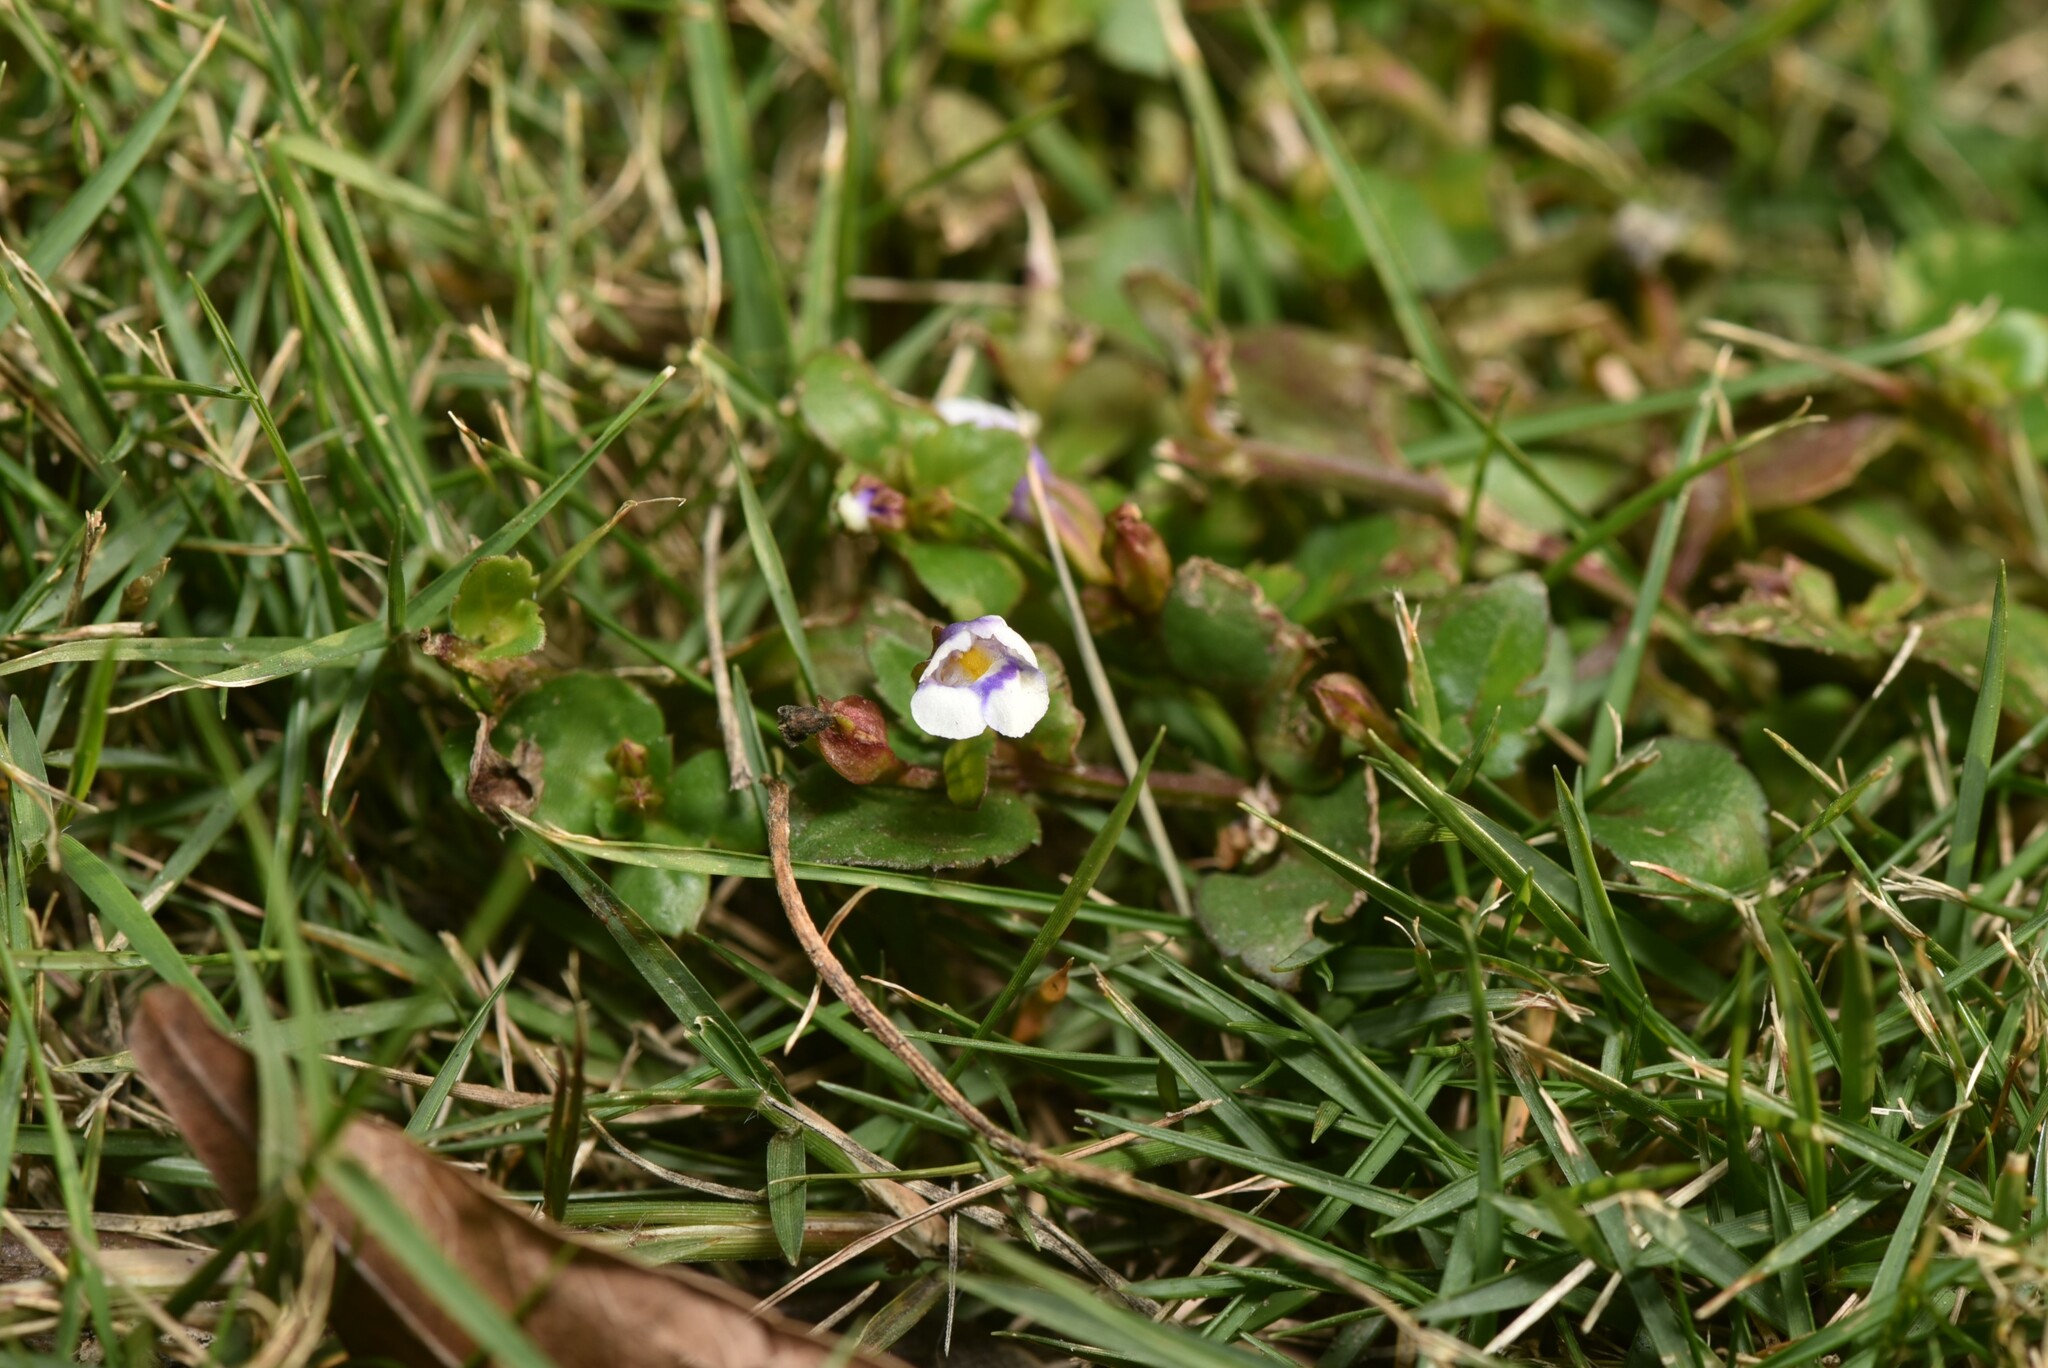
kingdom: Plantae
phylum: Tracheophyta
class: Magnoliopsida
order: Lamiales
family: Linderniaceae
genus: Torenia
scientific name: Torenia crustacea
